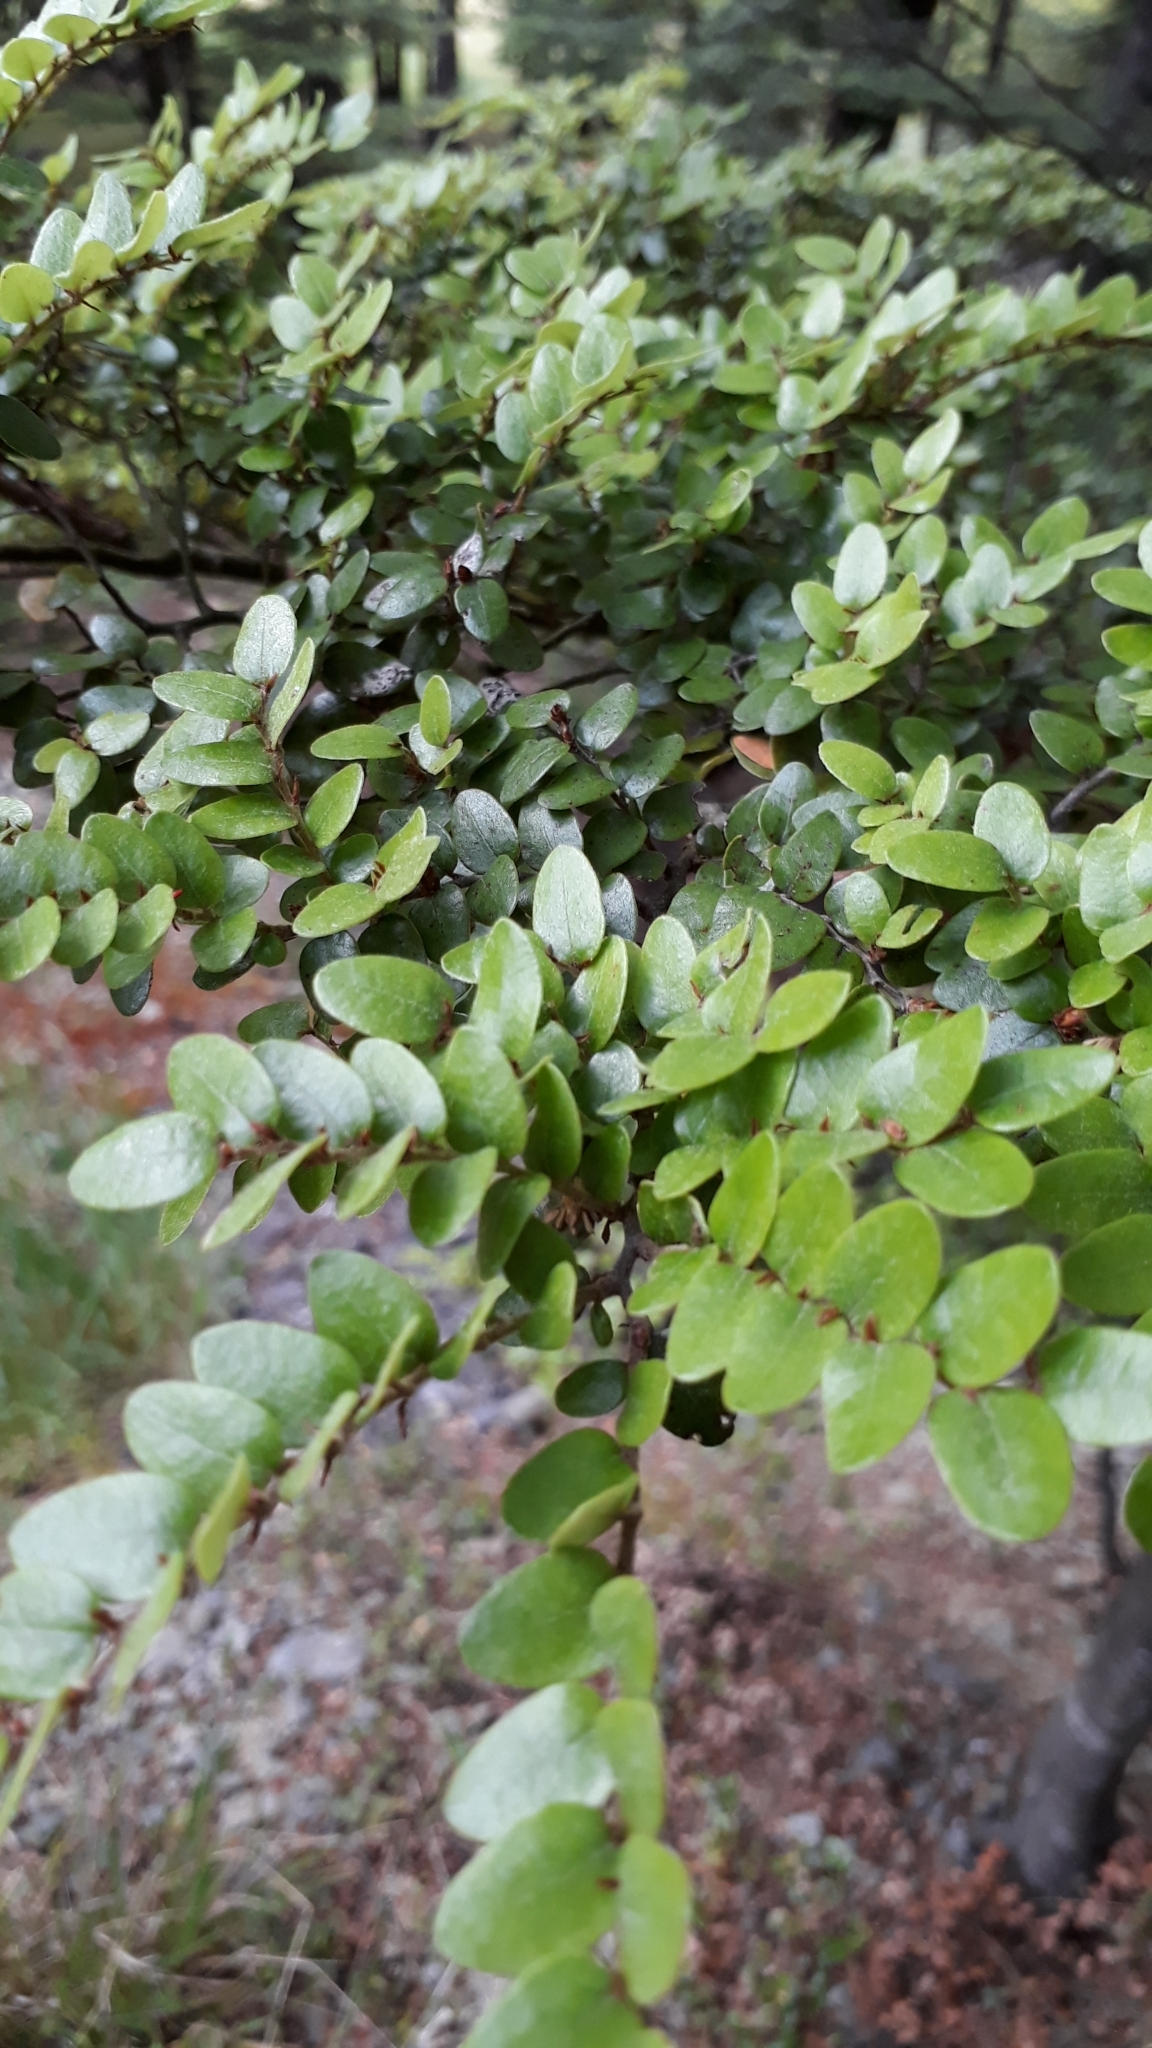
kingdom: Plantae
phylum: Tracheophyta
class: Magnoliopsida
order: Fagales
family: Nothofagaceae
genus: Nothofagus
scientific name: Nothofagus solandri
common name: Black beech
